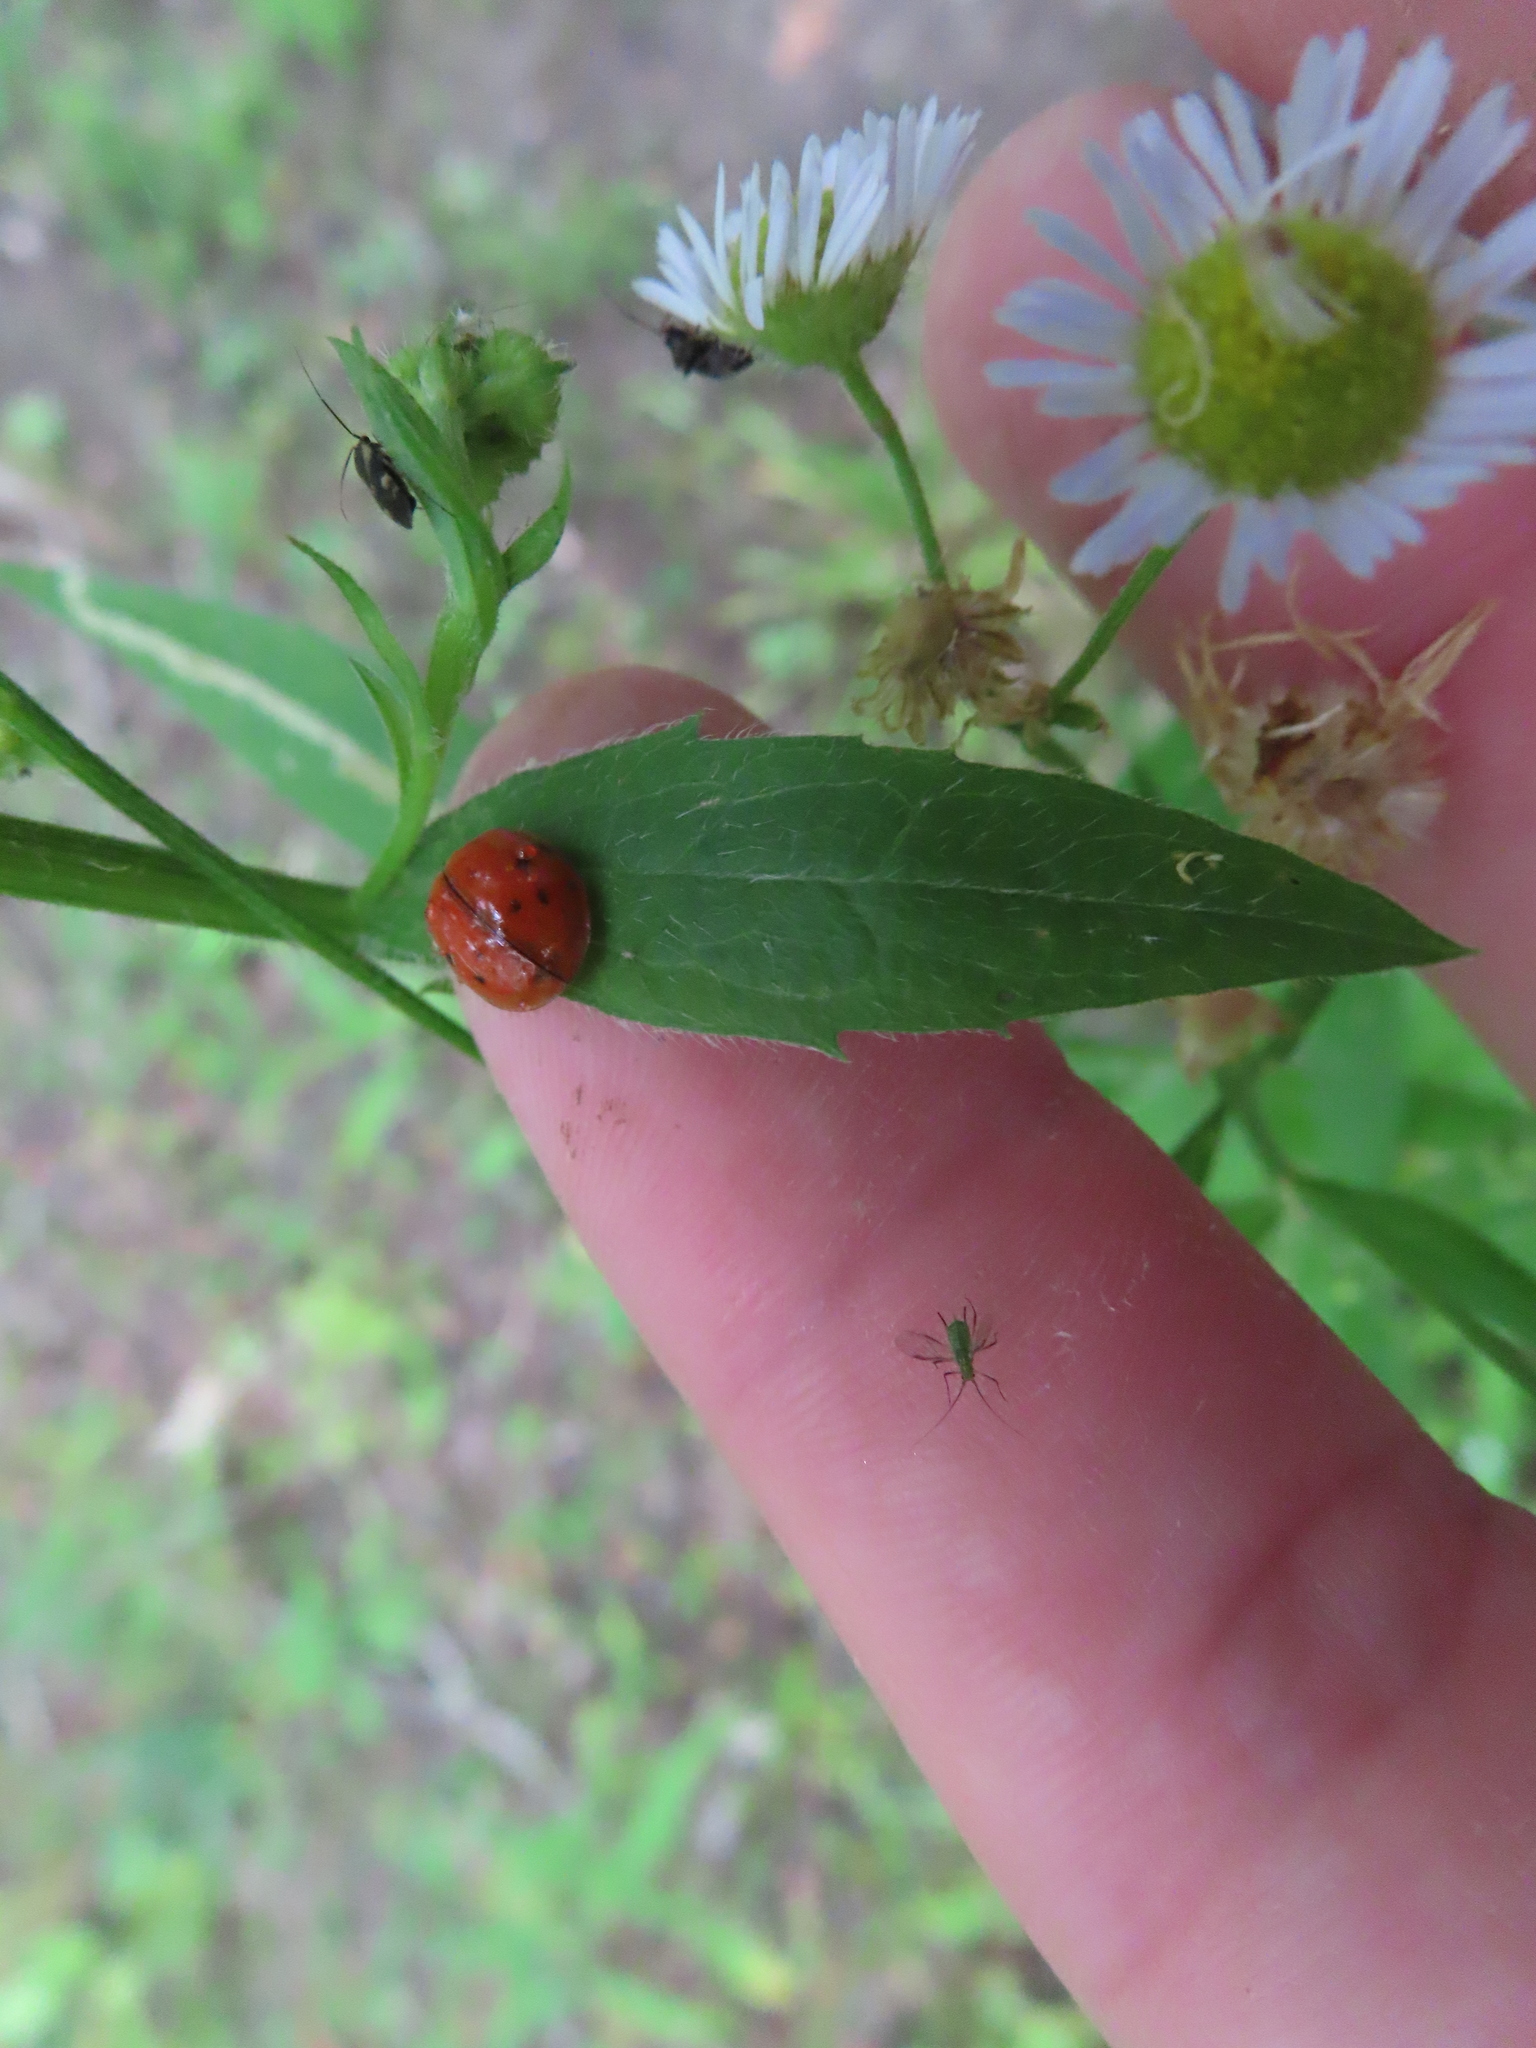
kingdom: Animalia
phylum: Arthropoda
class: Insecta
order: Coleoptera
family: Coccinellidae
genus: Harmonia
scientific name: Harmonia axyridis
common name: Harlequin ladybird
